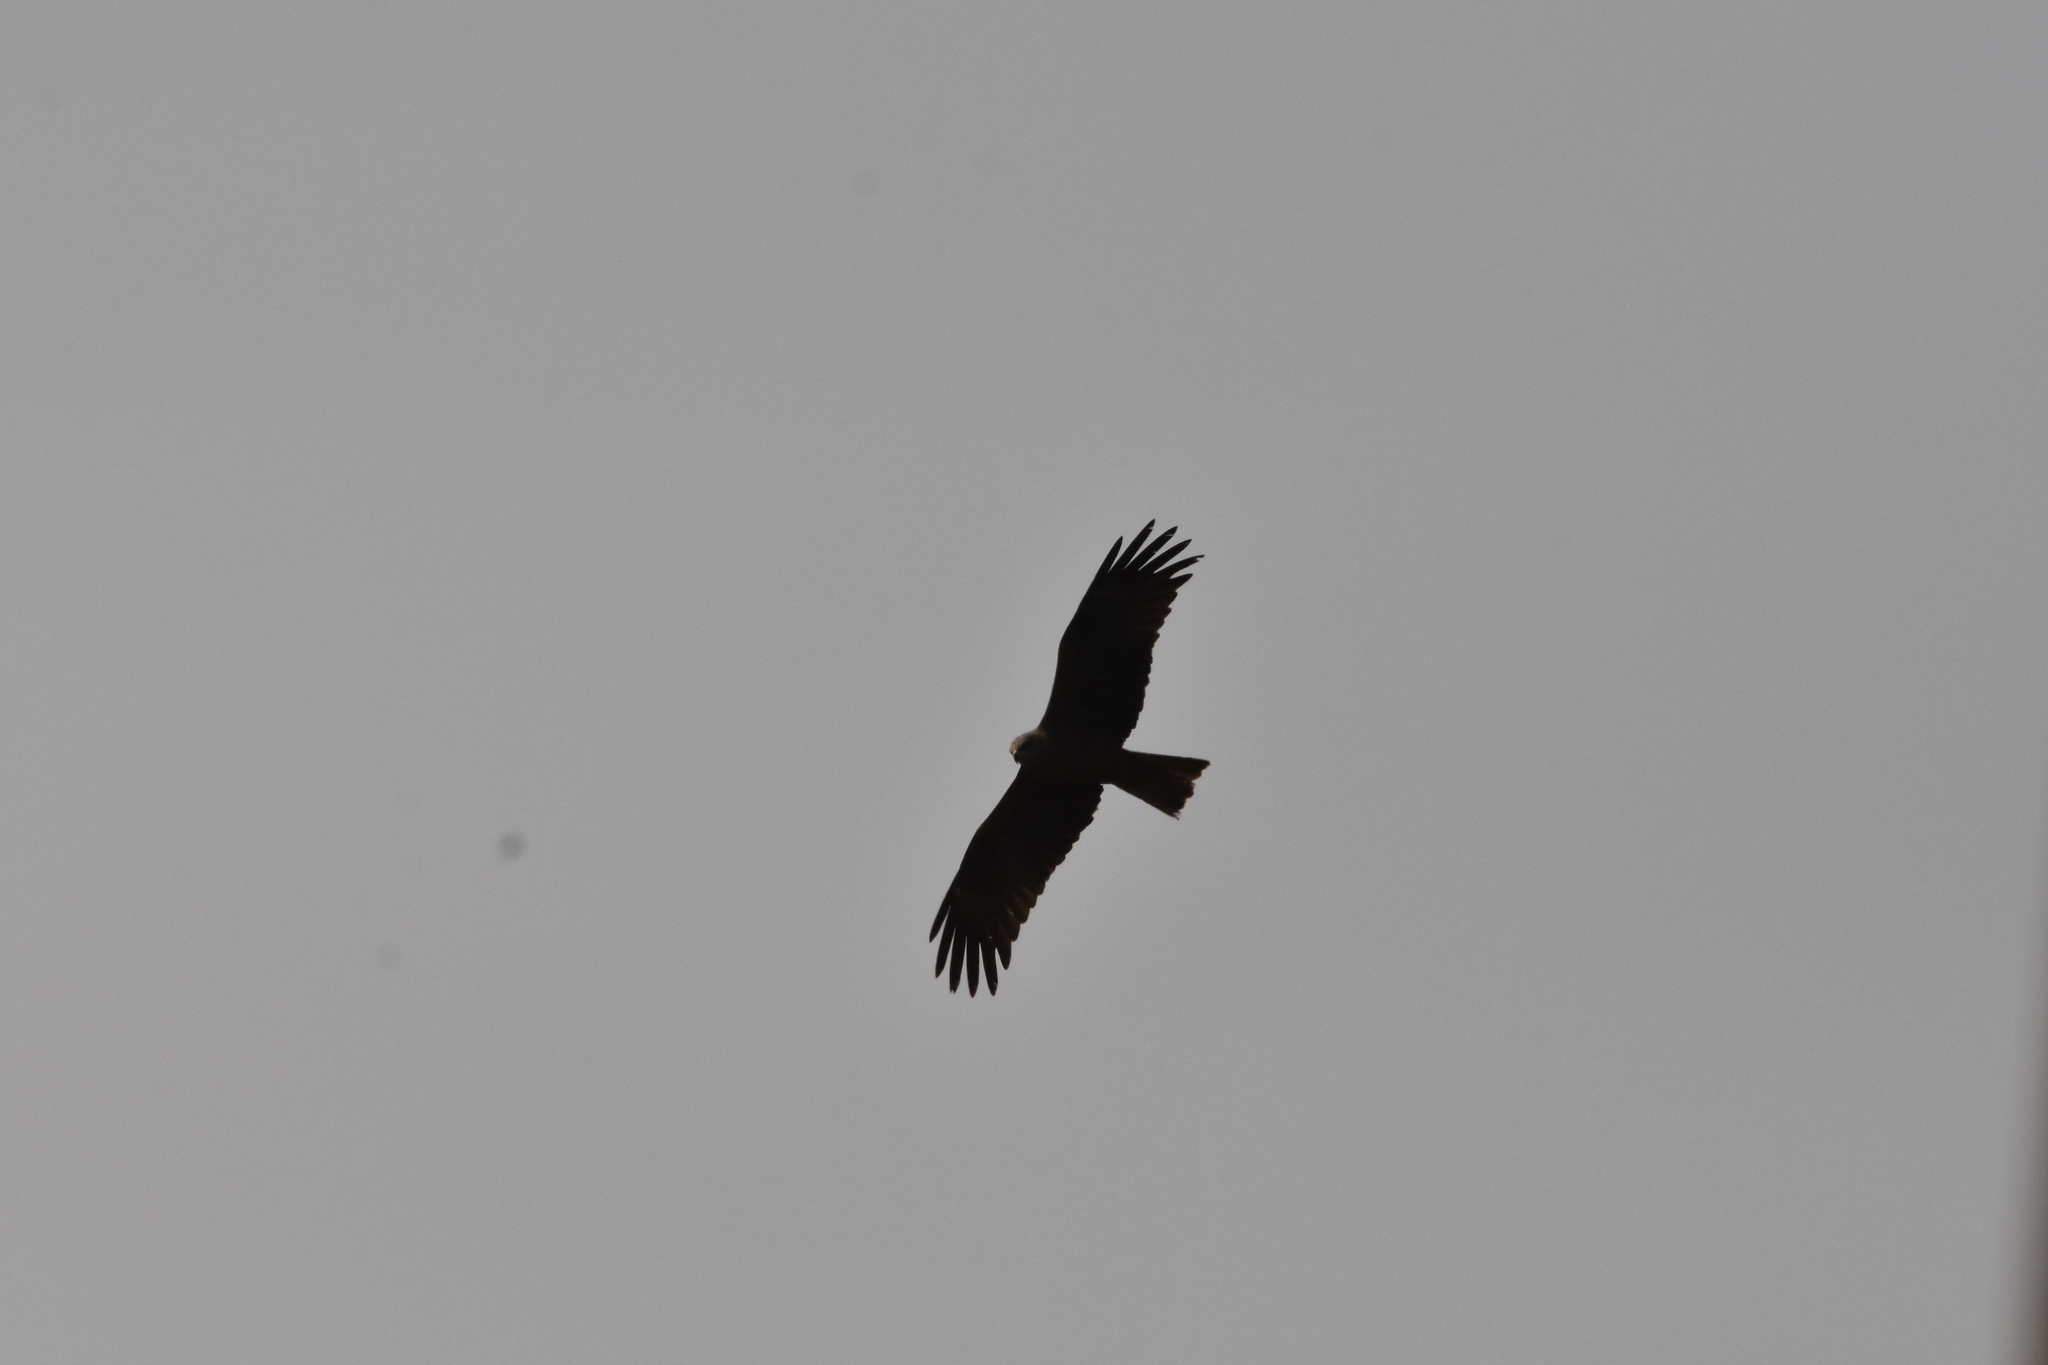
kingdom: Animalia
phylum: Chordata
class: Aves
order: Accipitriformes
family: Accipitridae
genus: Milvus
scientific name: Milvus migrans
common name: Black kite
